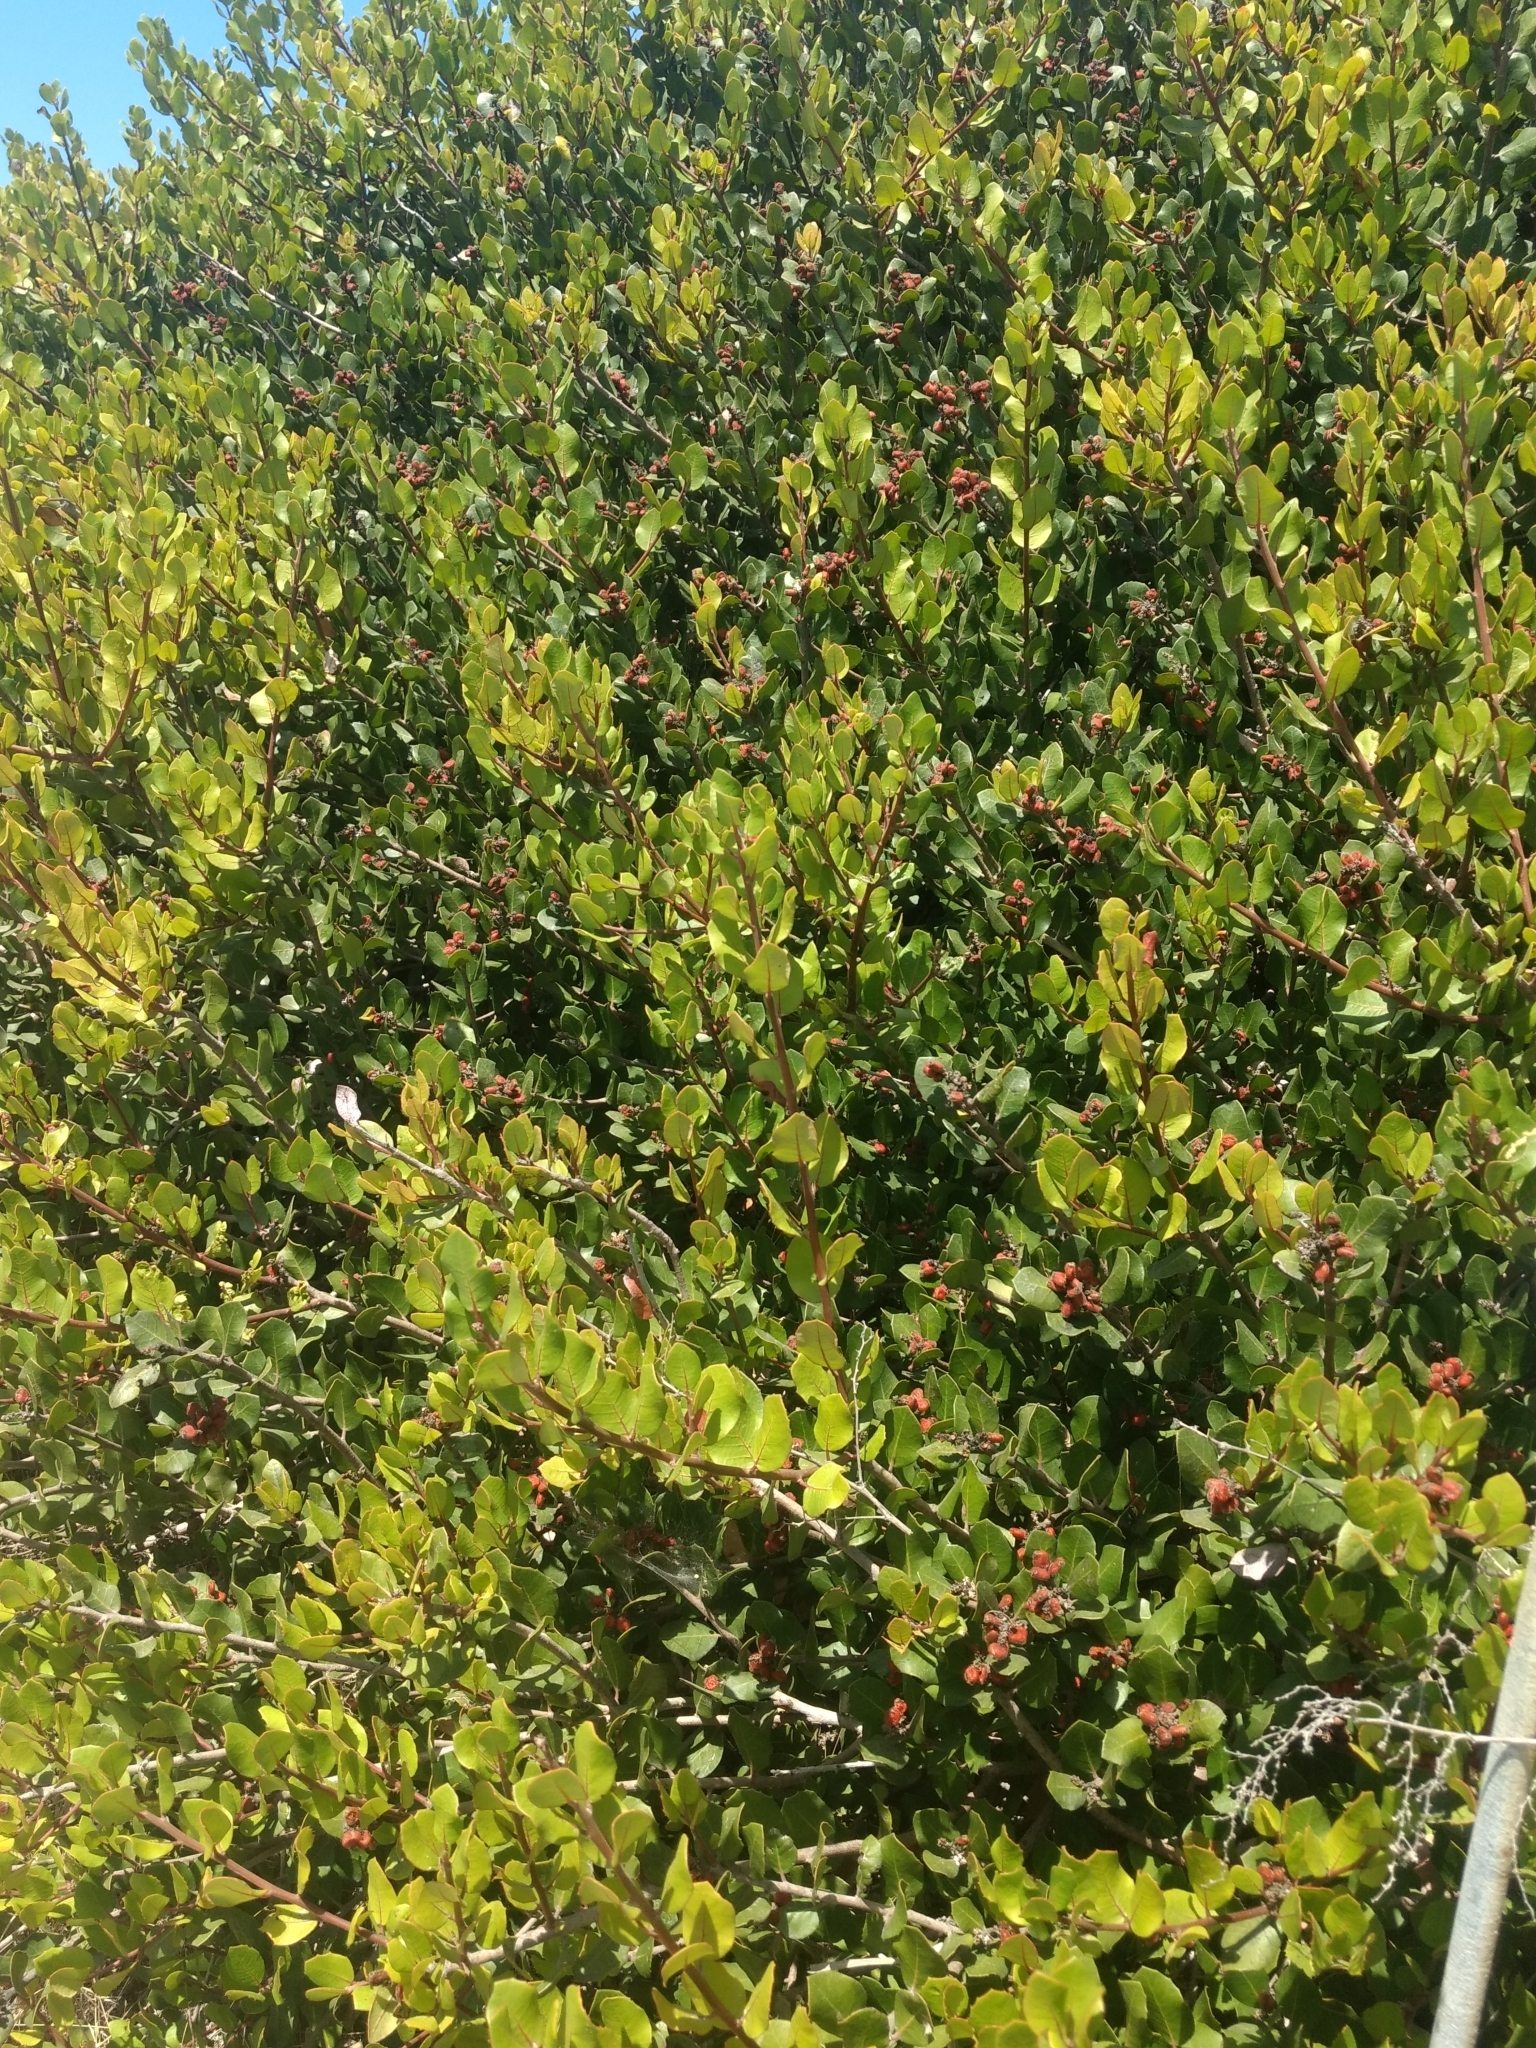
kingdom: Plantae
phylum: Tracheophyta
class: Magnoliopsida
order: Sapindales
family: Anacardiaceae
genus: Rhus
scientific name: Rhus integrifolia
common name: Lemonade sumac
